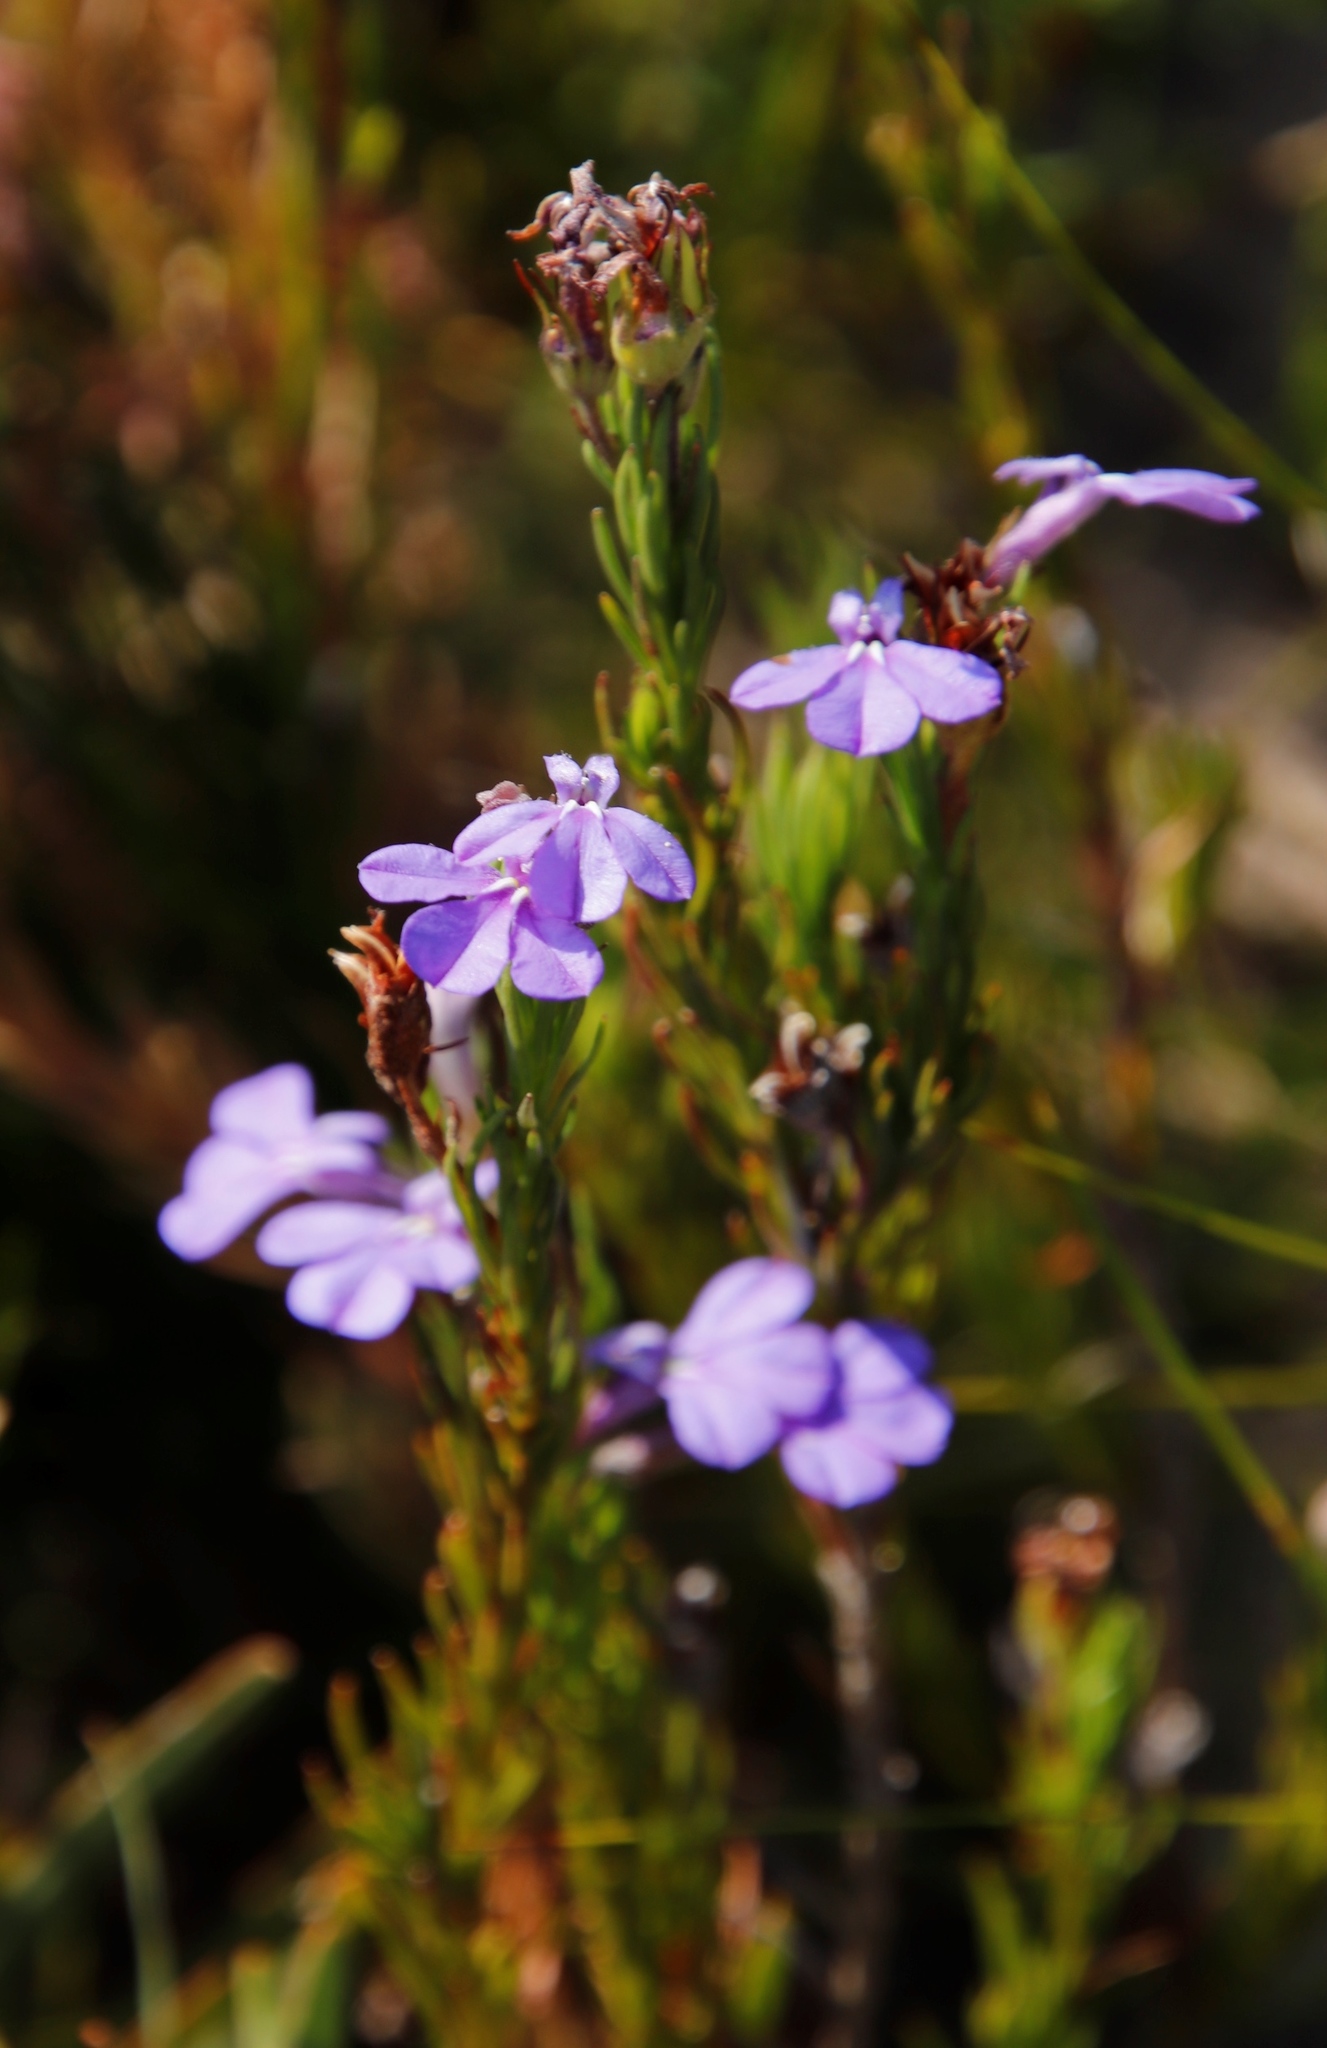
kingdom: Plantae
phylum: Tracheophyta
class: Magnoliopsida
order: Asterales
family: Campanulaceae
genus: Lobelia
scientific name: Lobelia pinifolia
